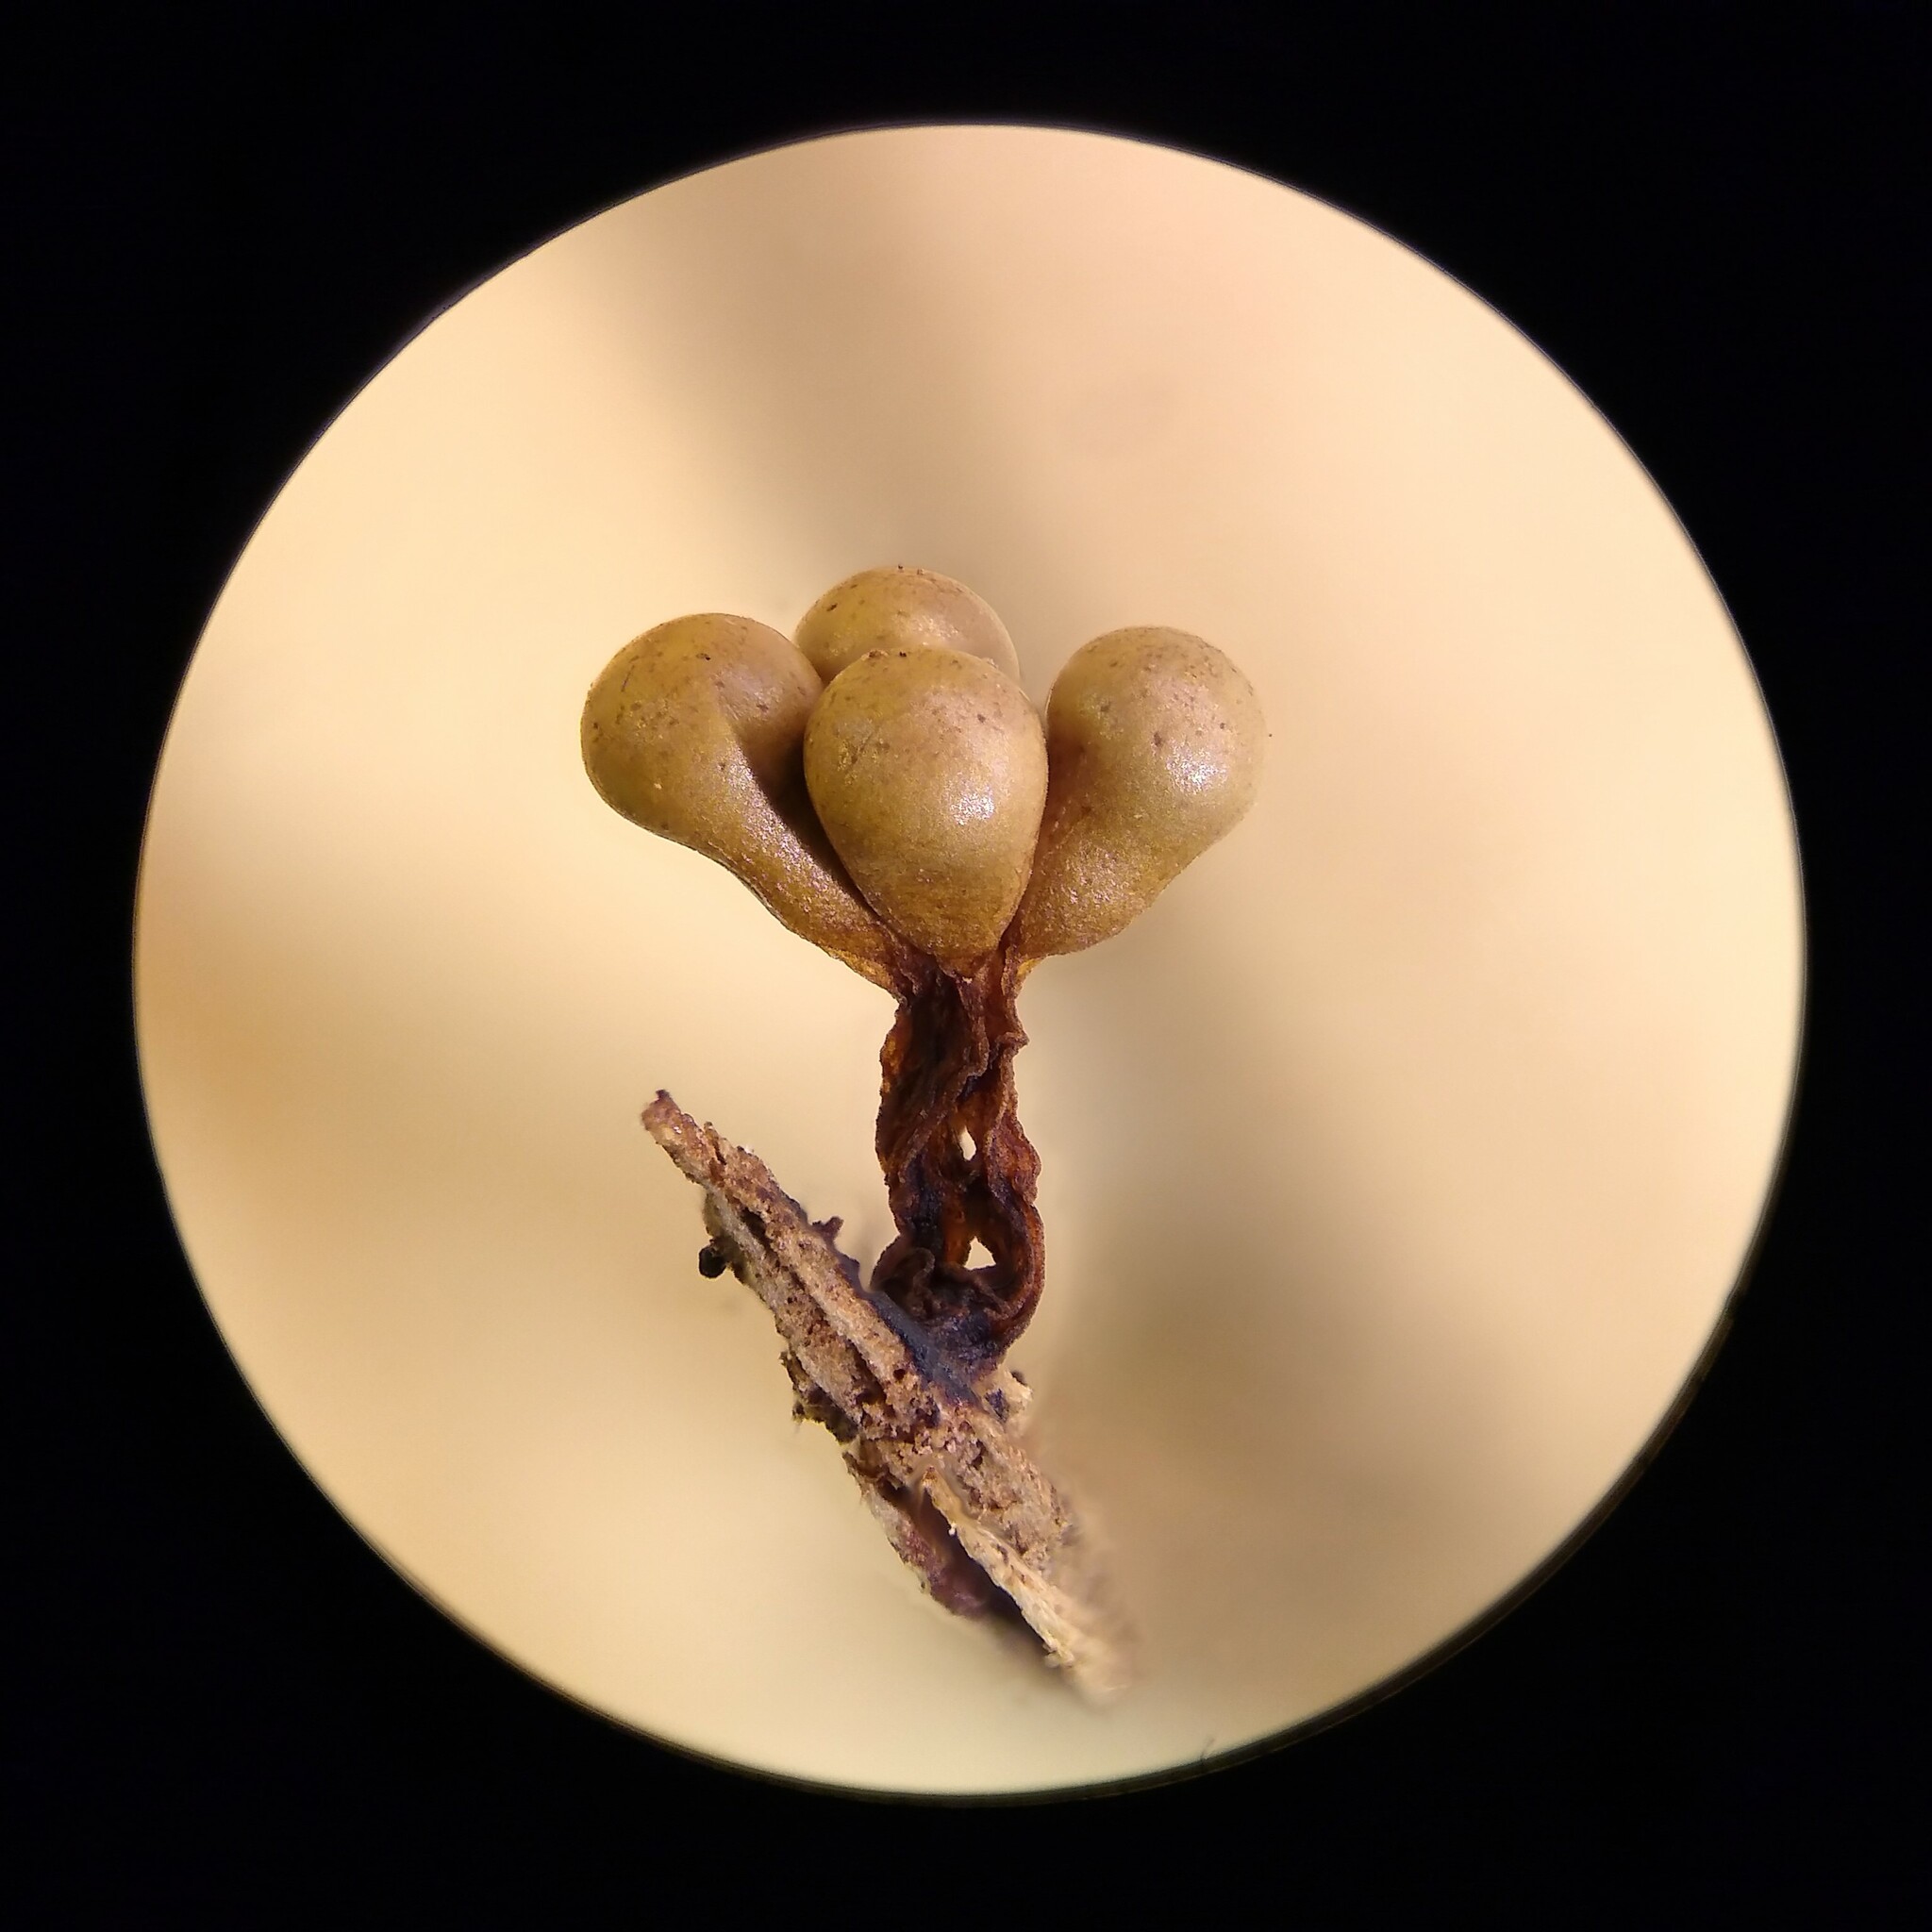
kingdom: Protozoa
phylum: Mycetozoa
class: Myxomycetes
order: Trichiales
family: Trichiaceae
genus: Oligonema
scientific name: Oligonema verrucosum
